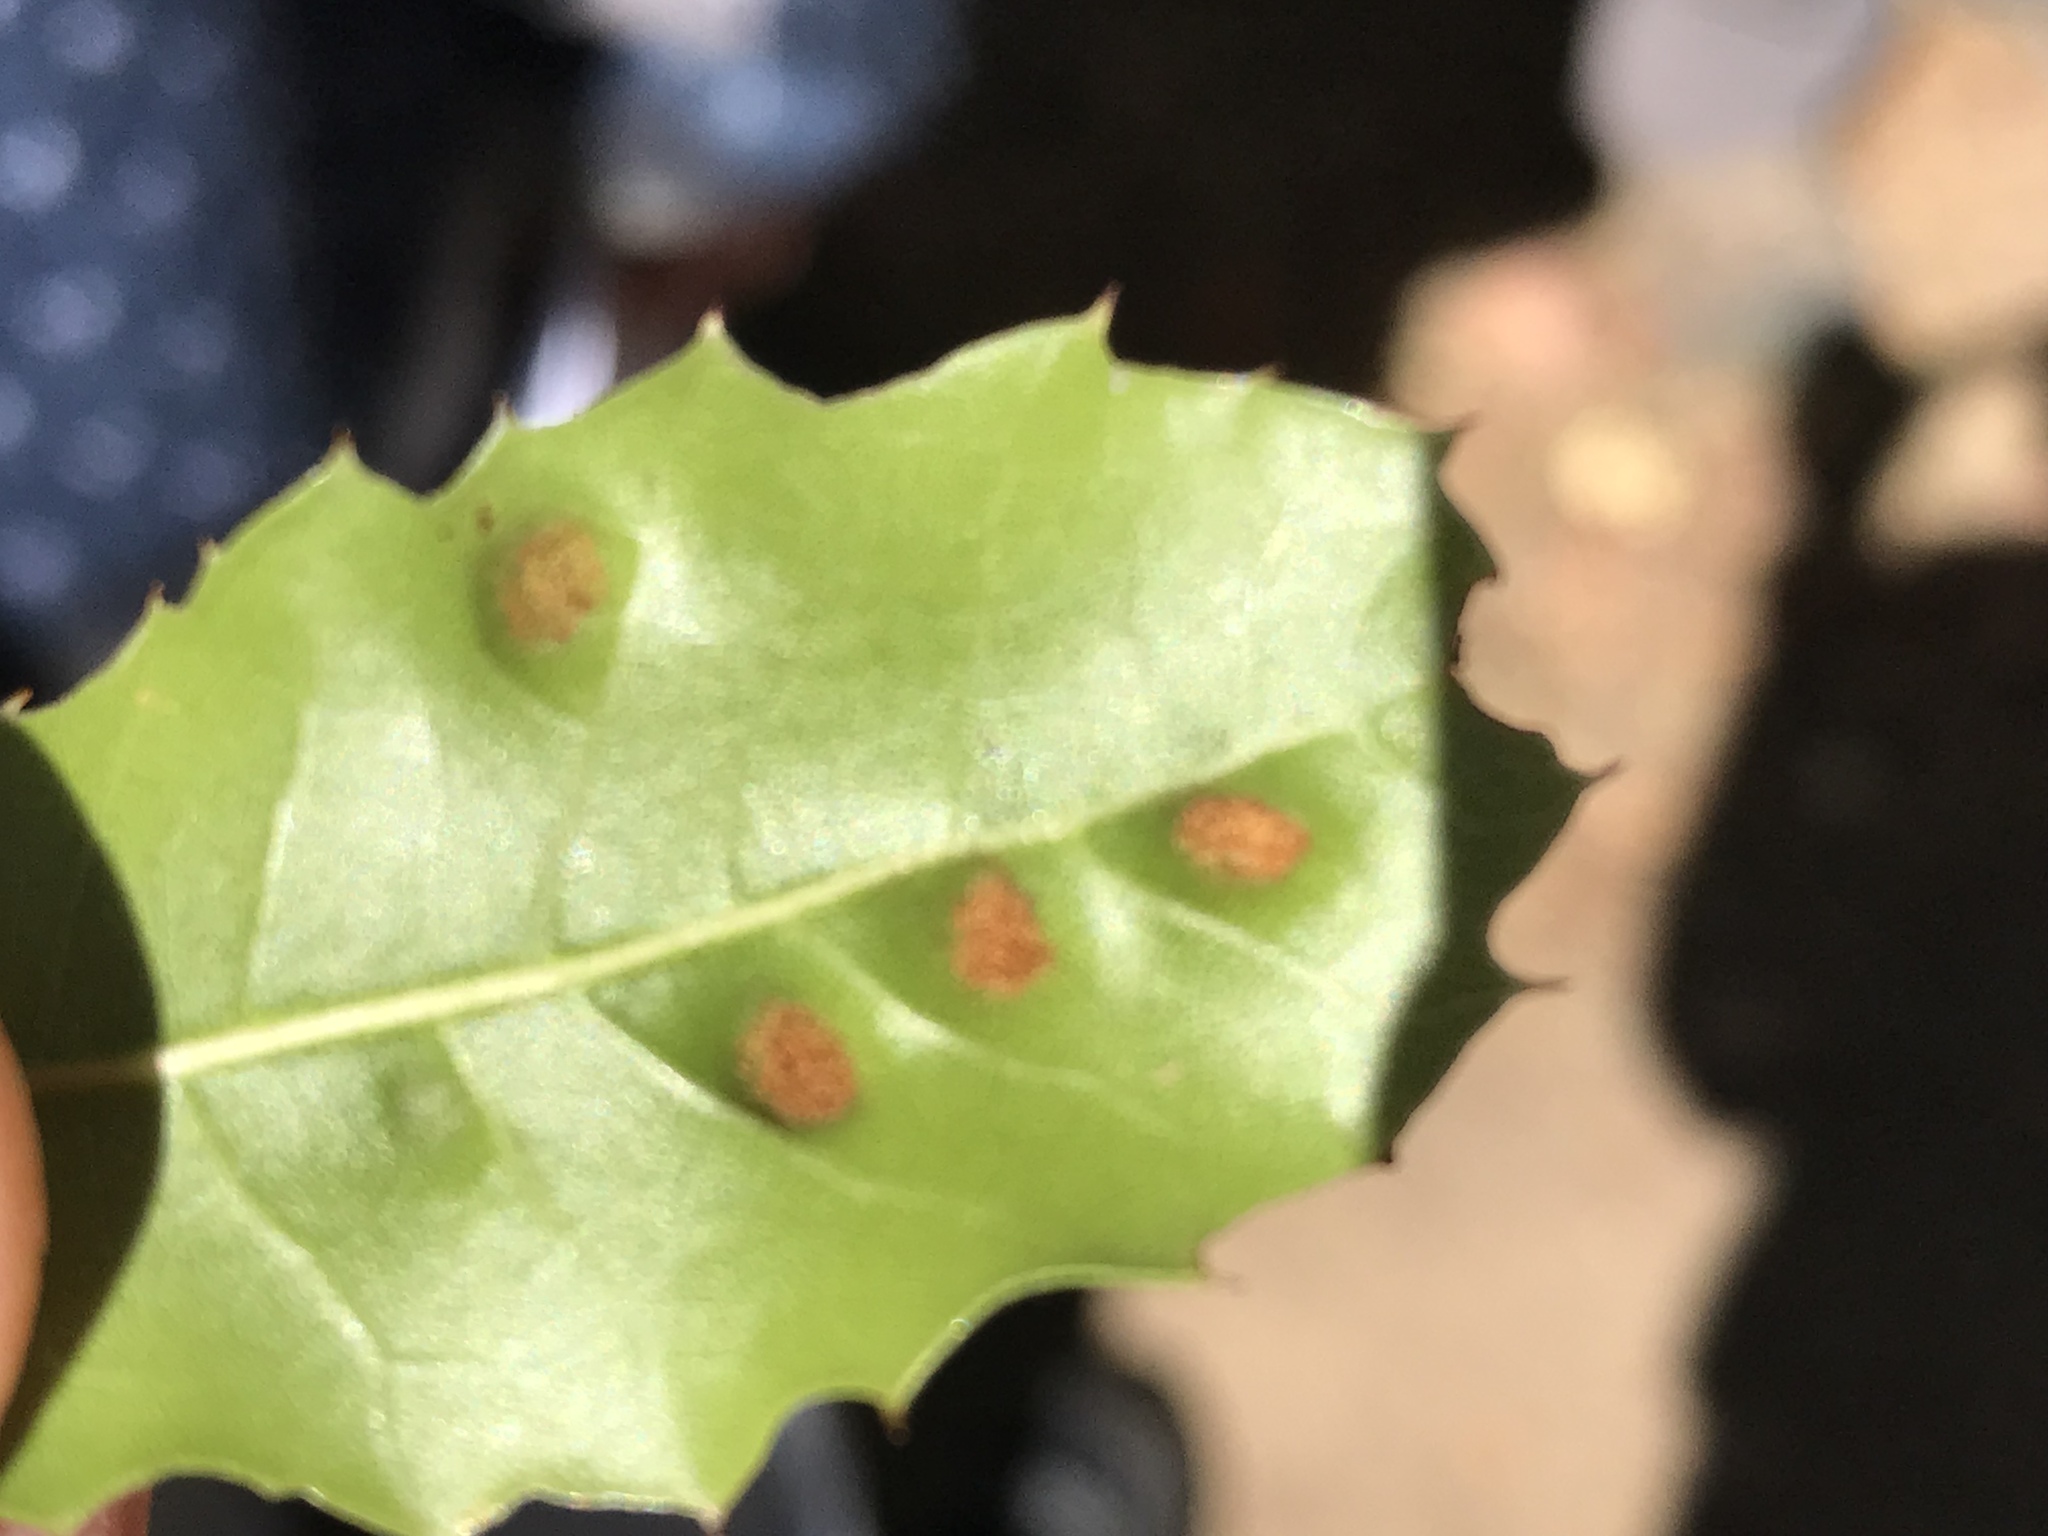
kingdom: Animalia
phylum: Arthropoda
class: Arachnida
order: Trombidiformes
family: Eriophyidae
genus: Aceria
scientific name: Aceria
